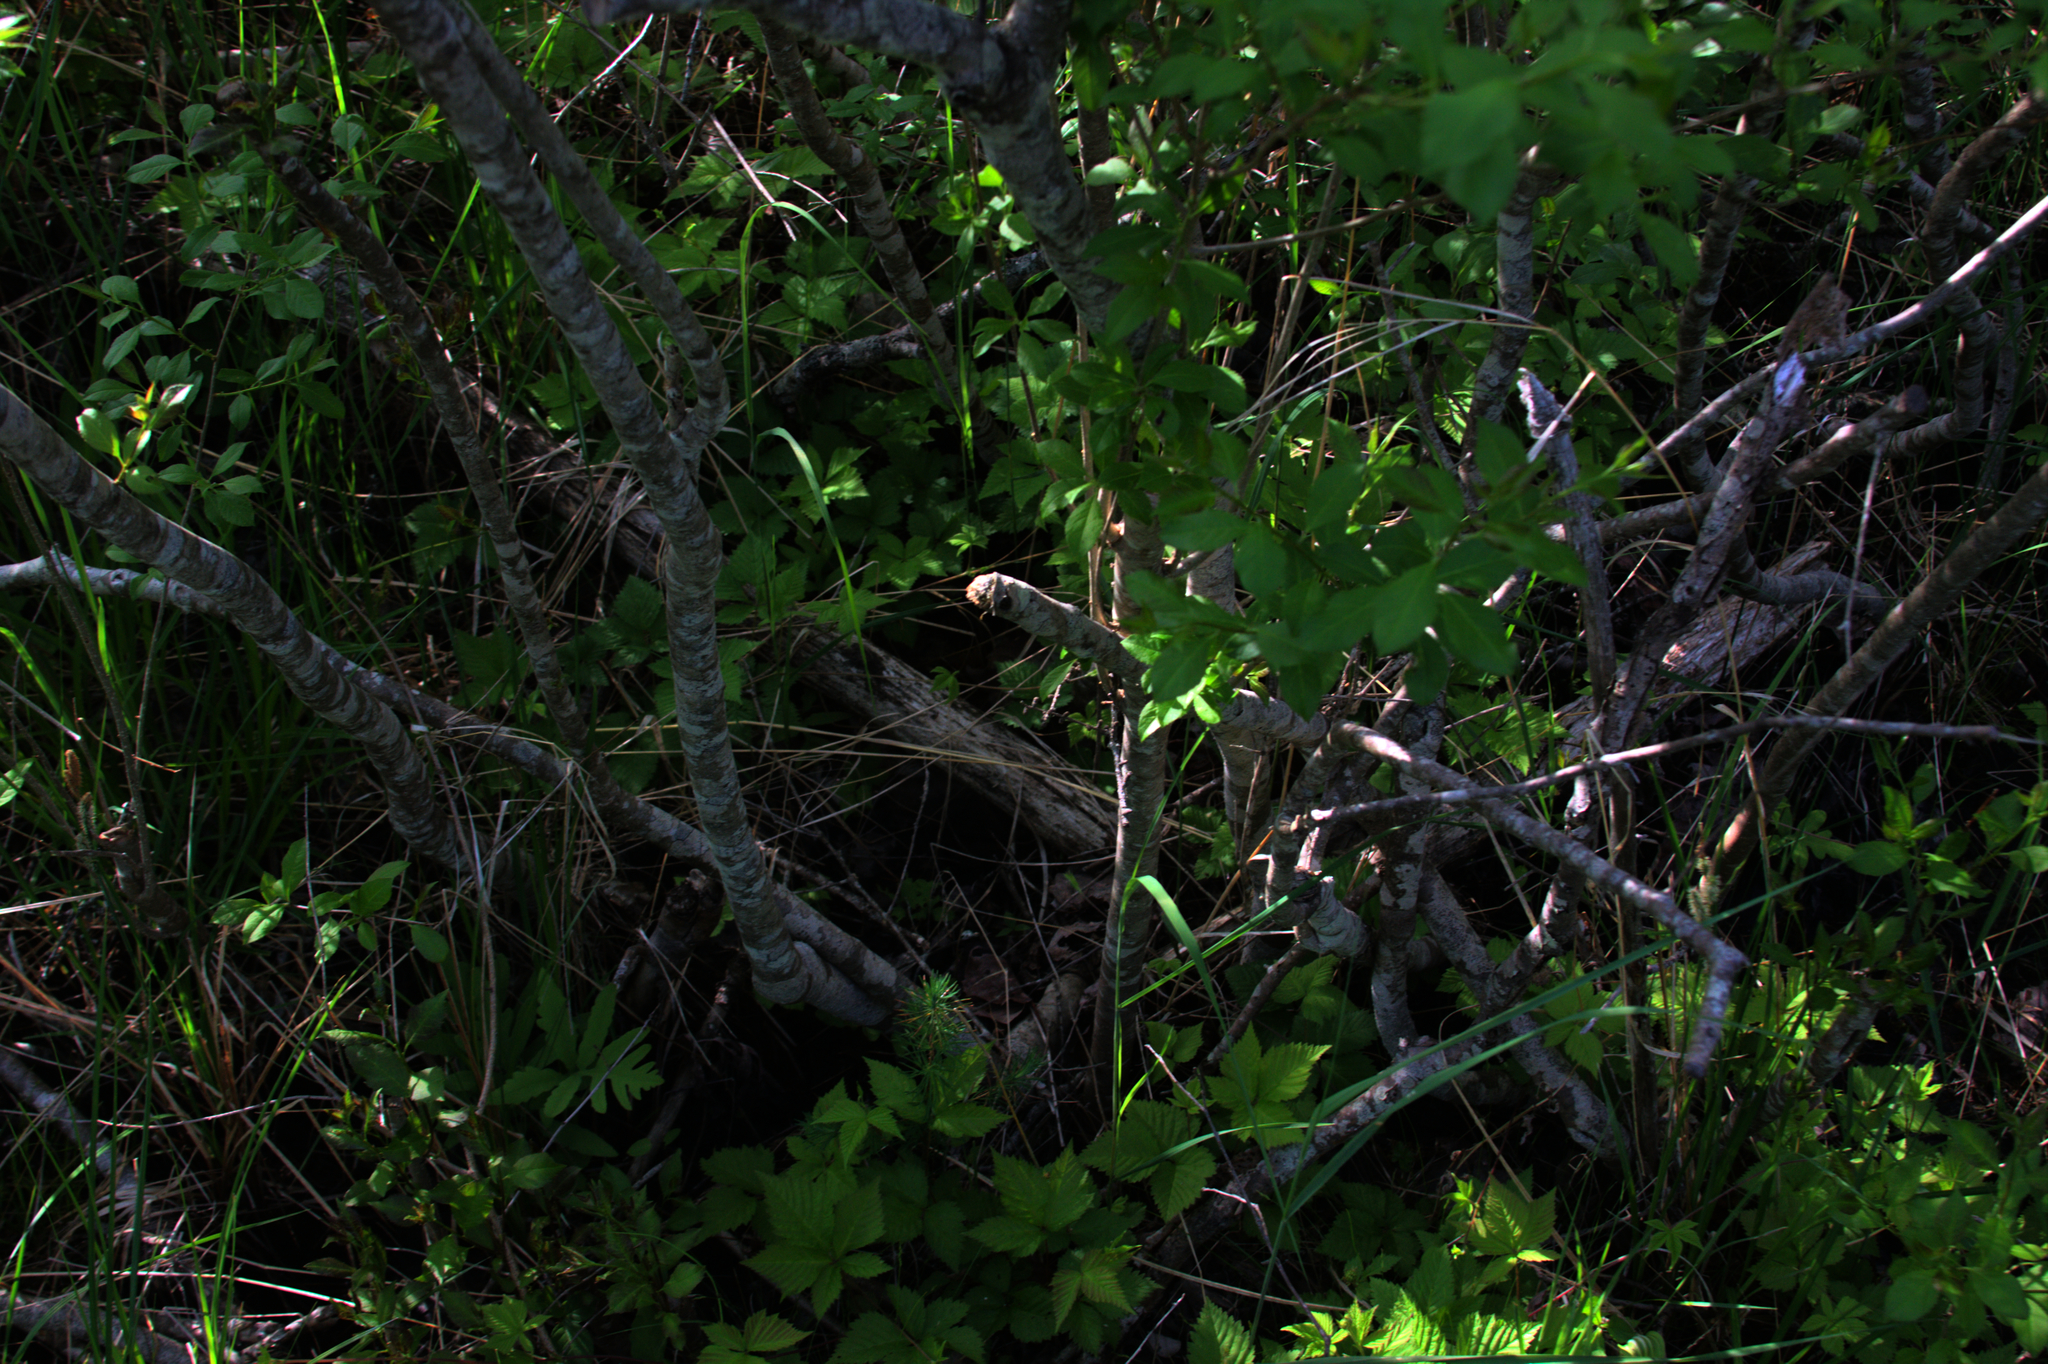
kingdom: Plantae
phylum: Tracheophyta
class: Magnoliopsida
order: Aquifoliales
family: Aquifoliaceae
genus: Ilex
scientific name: Ilex verticillata
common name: Virginia winterberry
